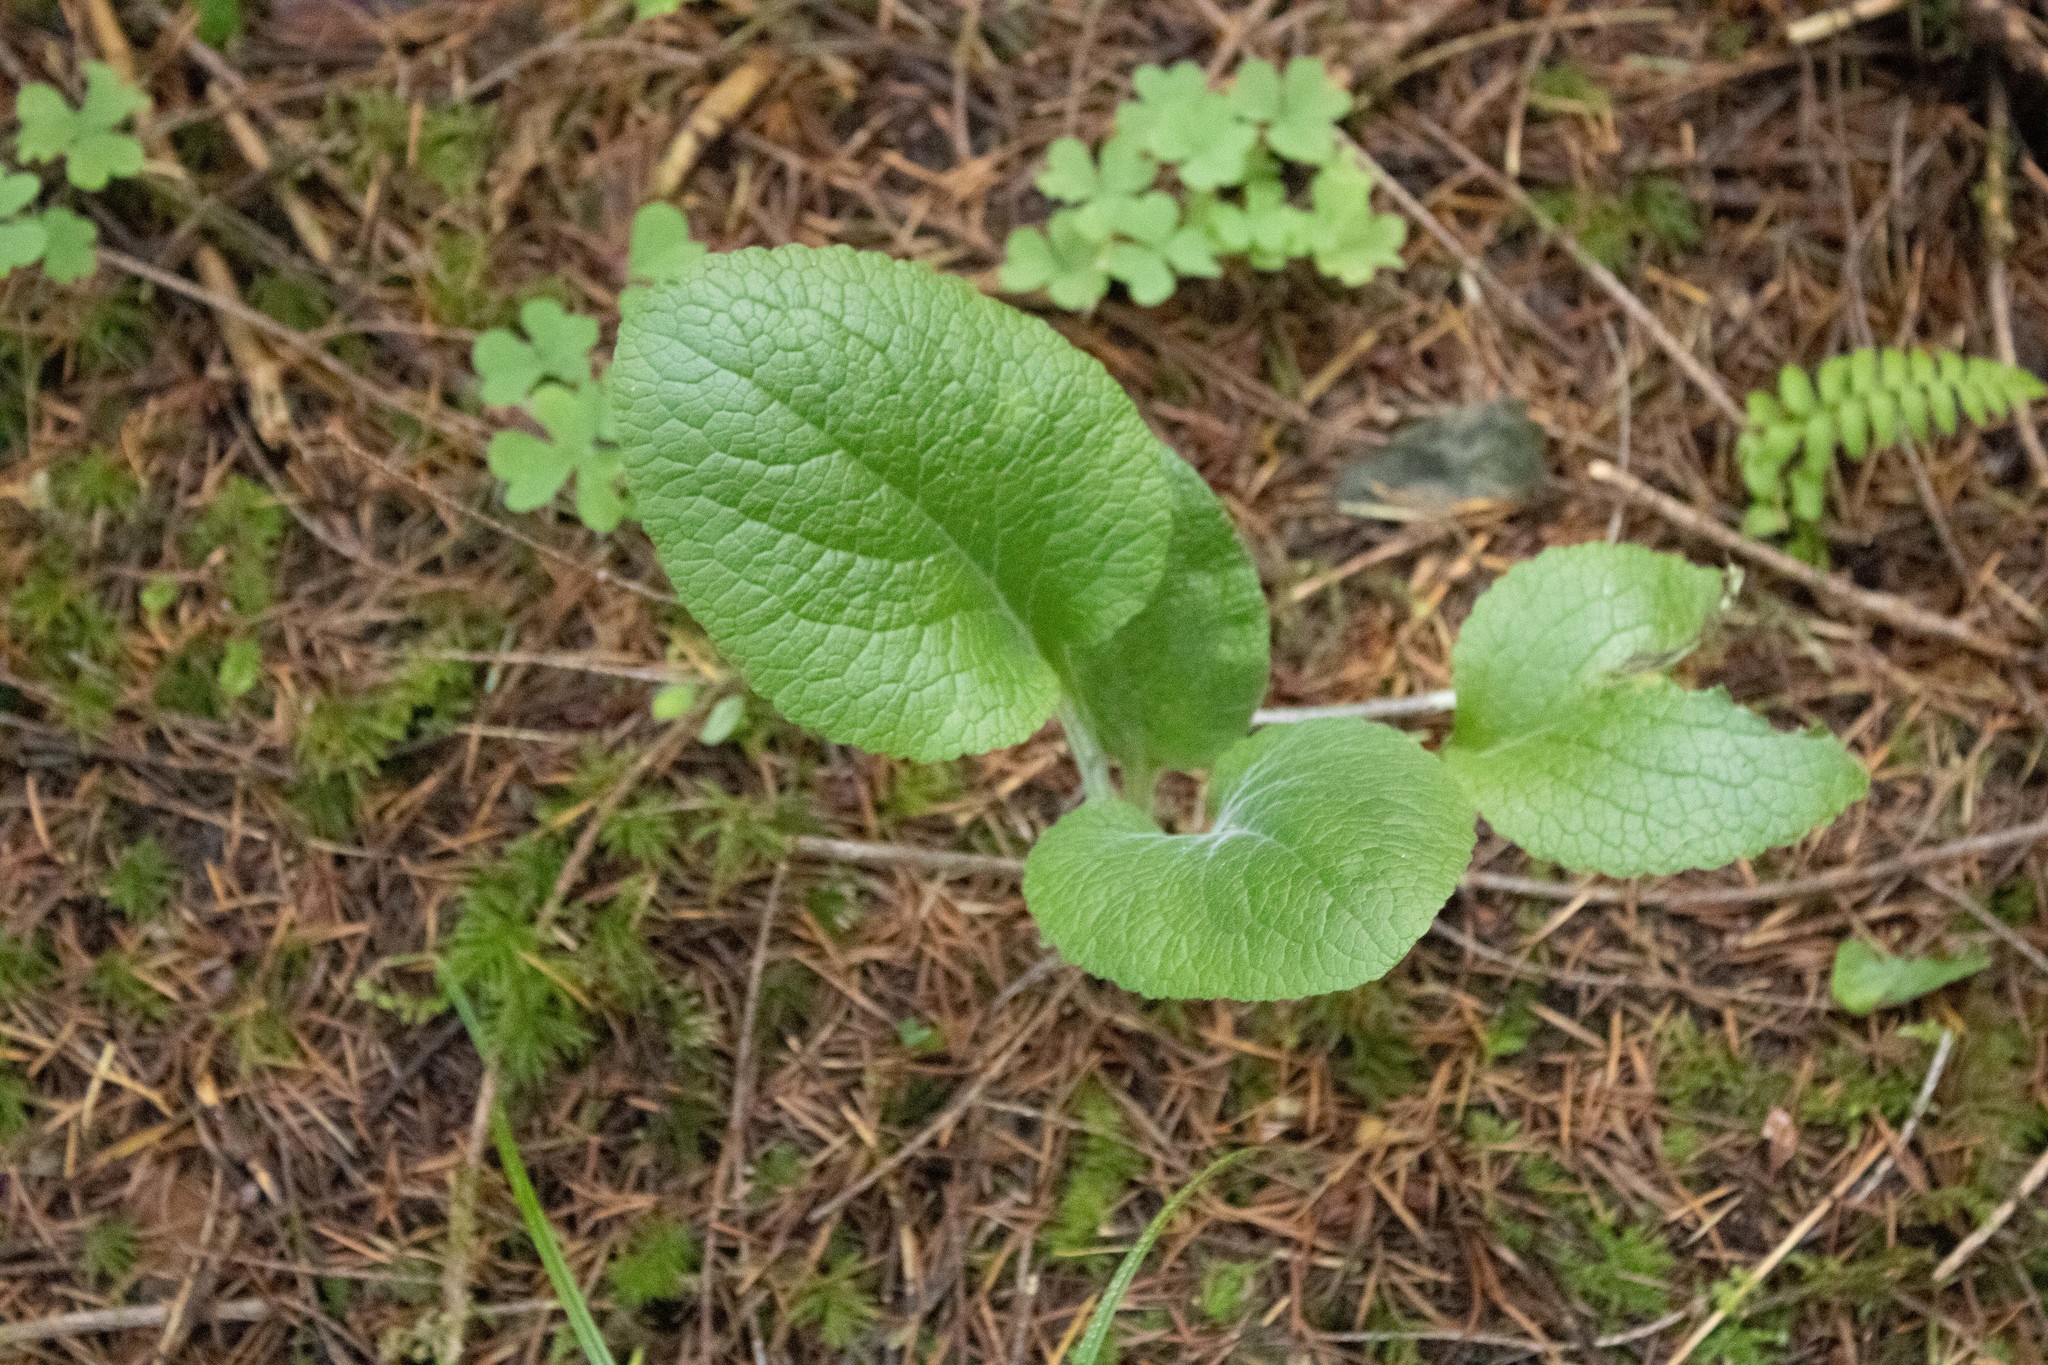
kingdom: Plantae
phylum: Tracheophyta
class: Magnoliopsida
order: Lamiales
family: Plantaginaceae
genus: Digitalis
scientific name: Digitalis purpurea
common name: Foxglove
